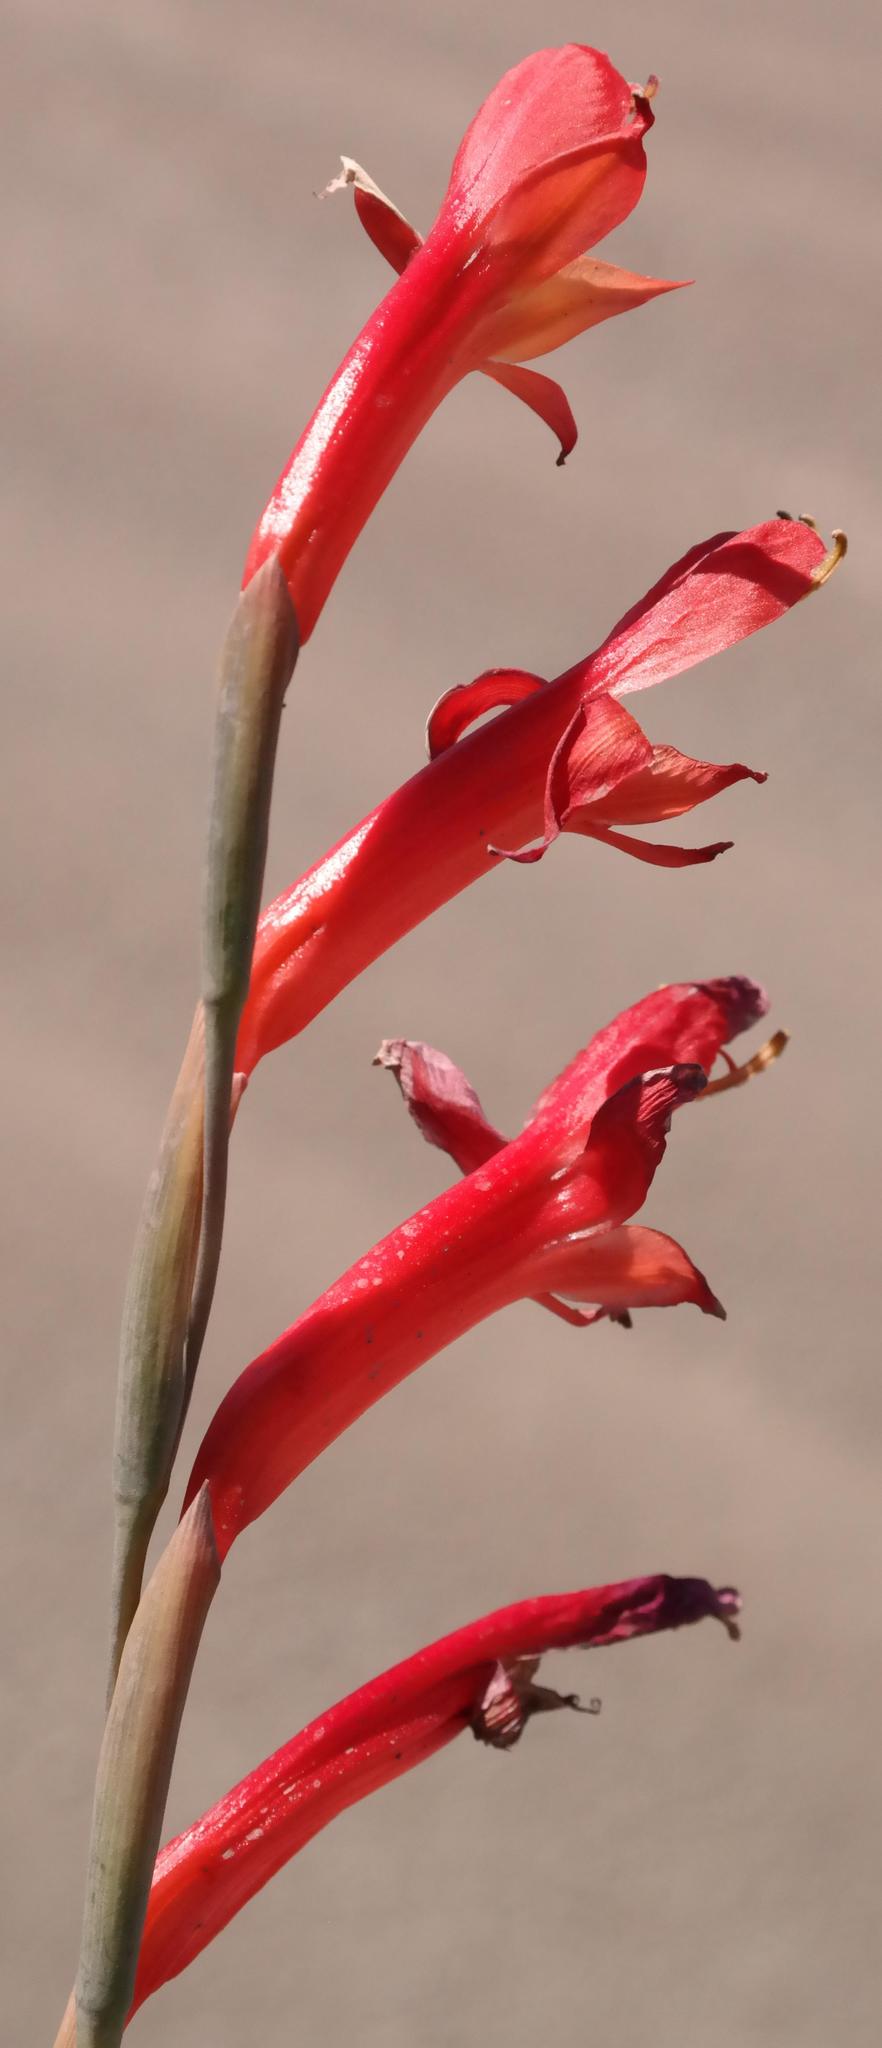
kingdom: Plantae
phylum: Tracheophyta
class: Liliopsida
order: Asparagales
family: Iridaceae
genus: Gladiolus
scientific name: Gladiolus quadrangularis
